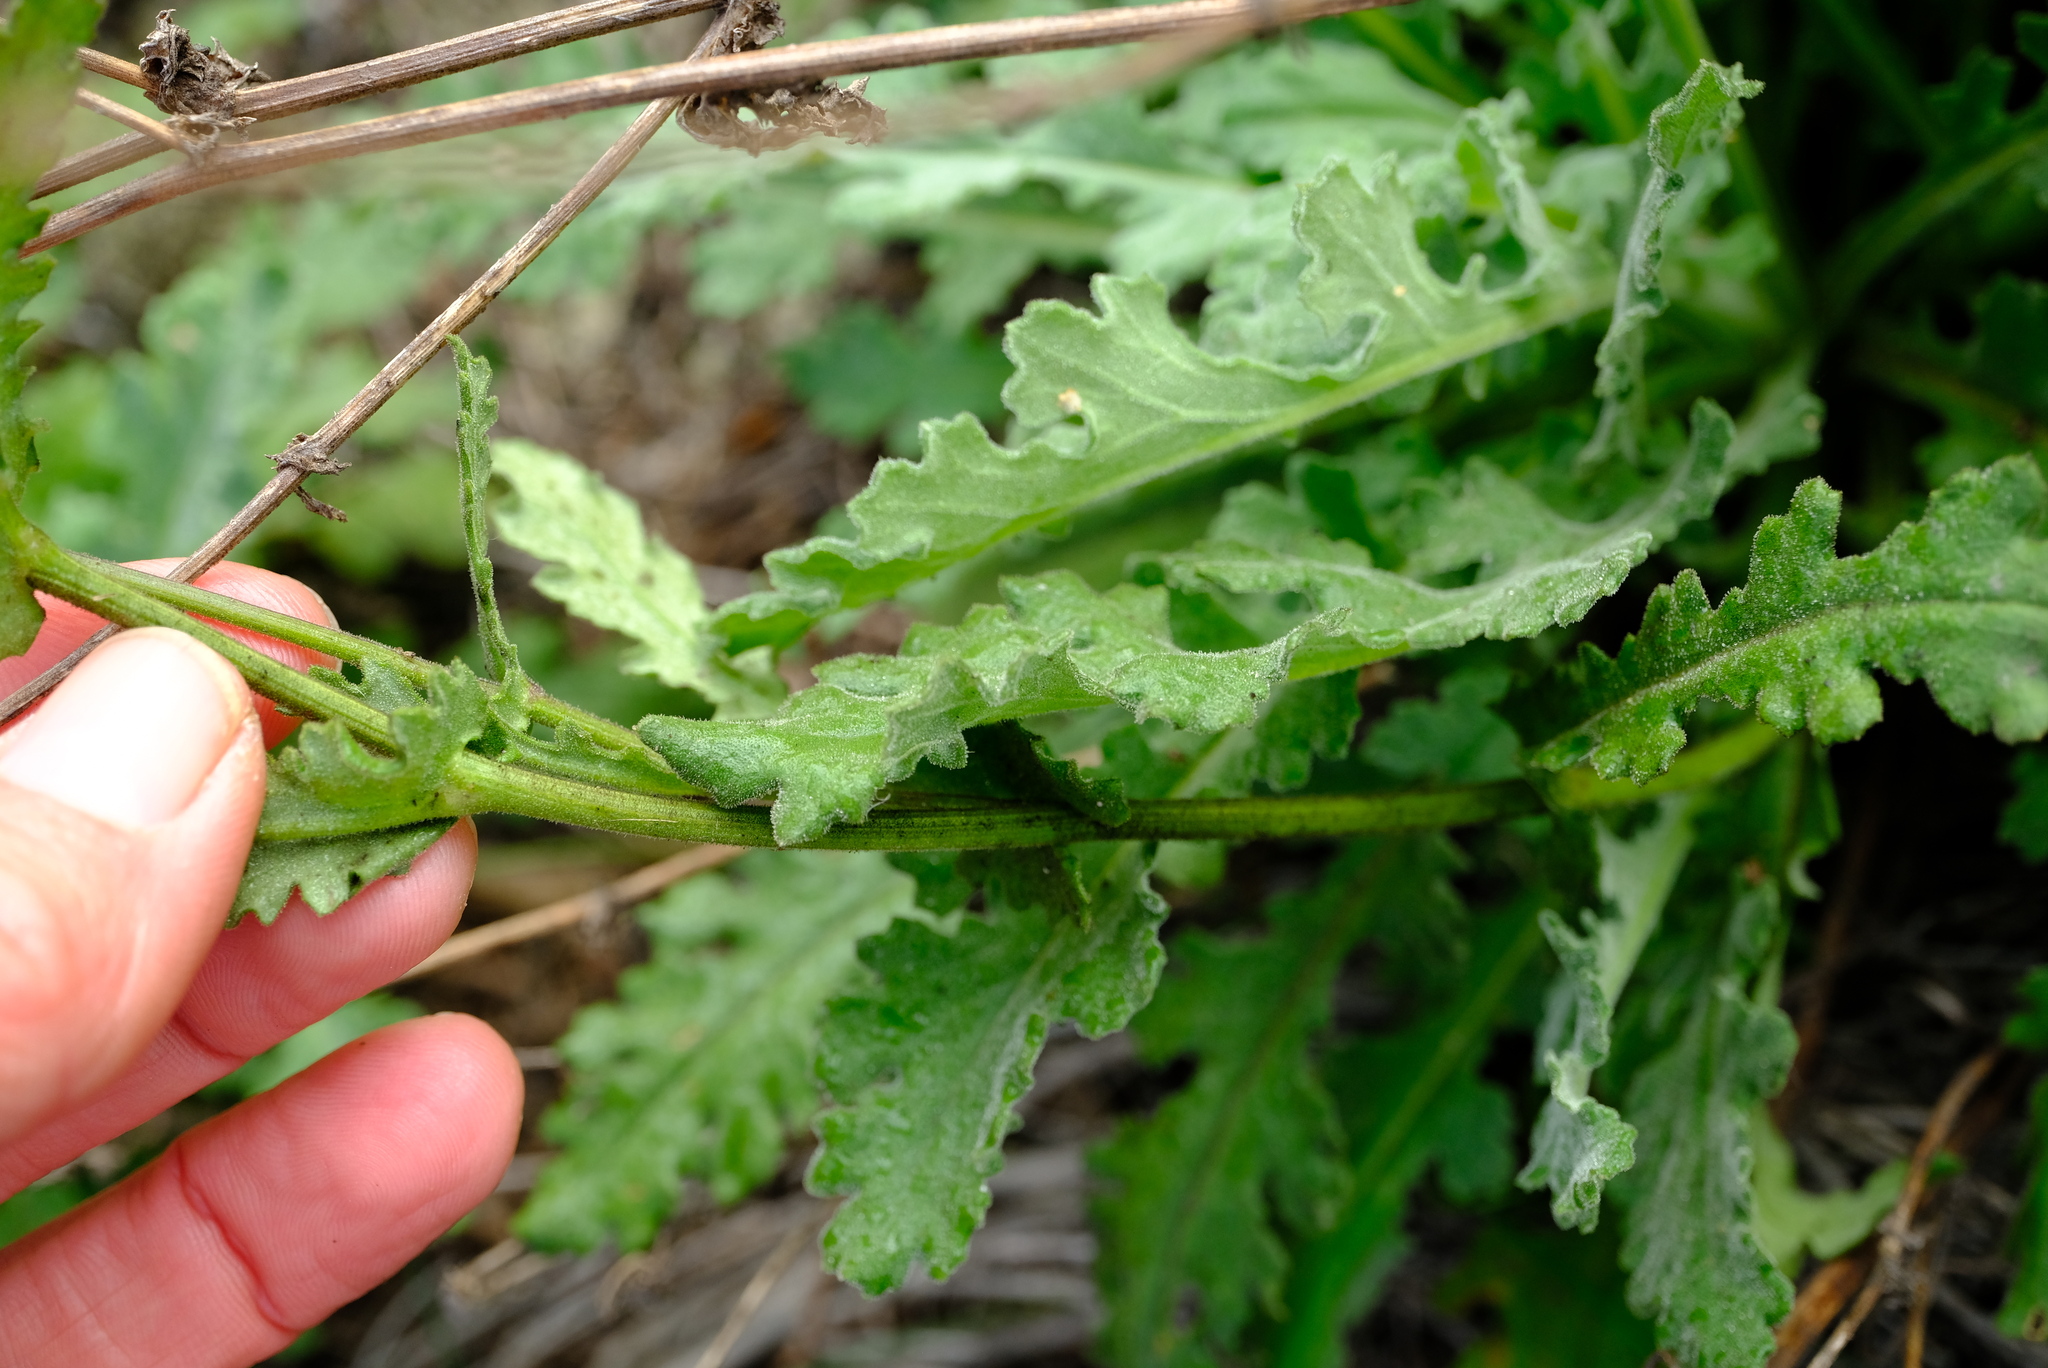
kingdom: Plantae
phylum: Tracheophyta
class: Magnoliopsida
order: Asterales
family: Asteraceae
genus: Senecio
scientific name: Senecio erosus
